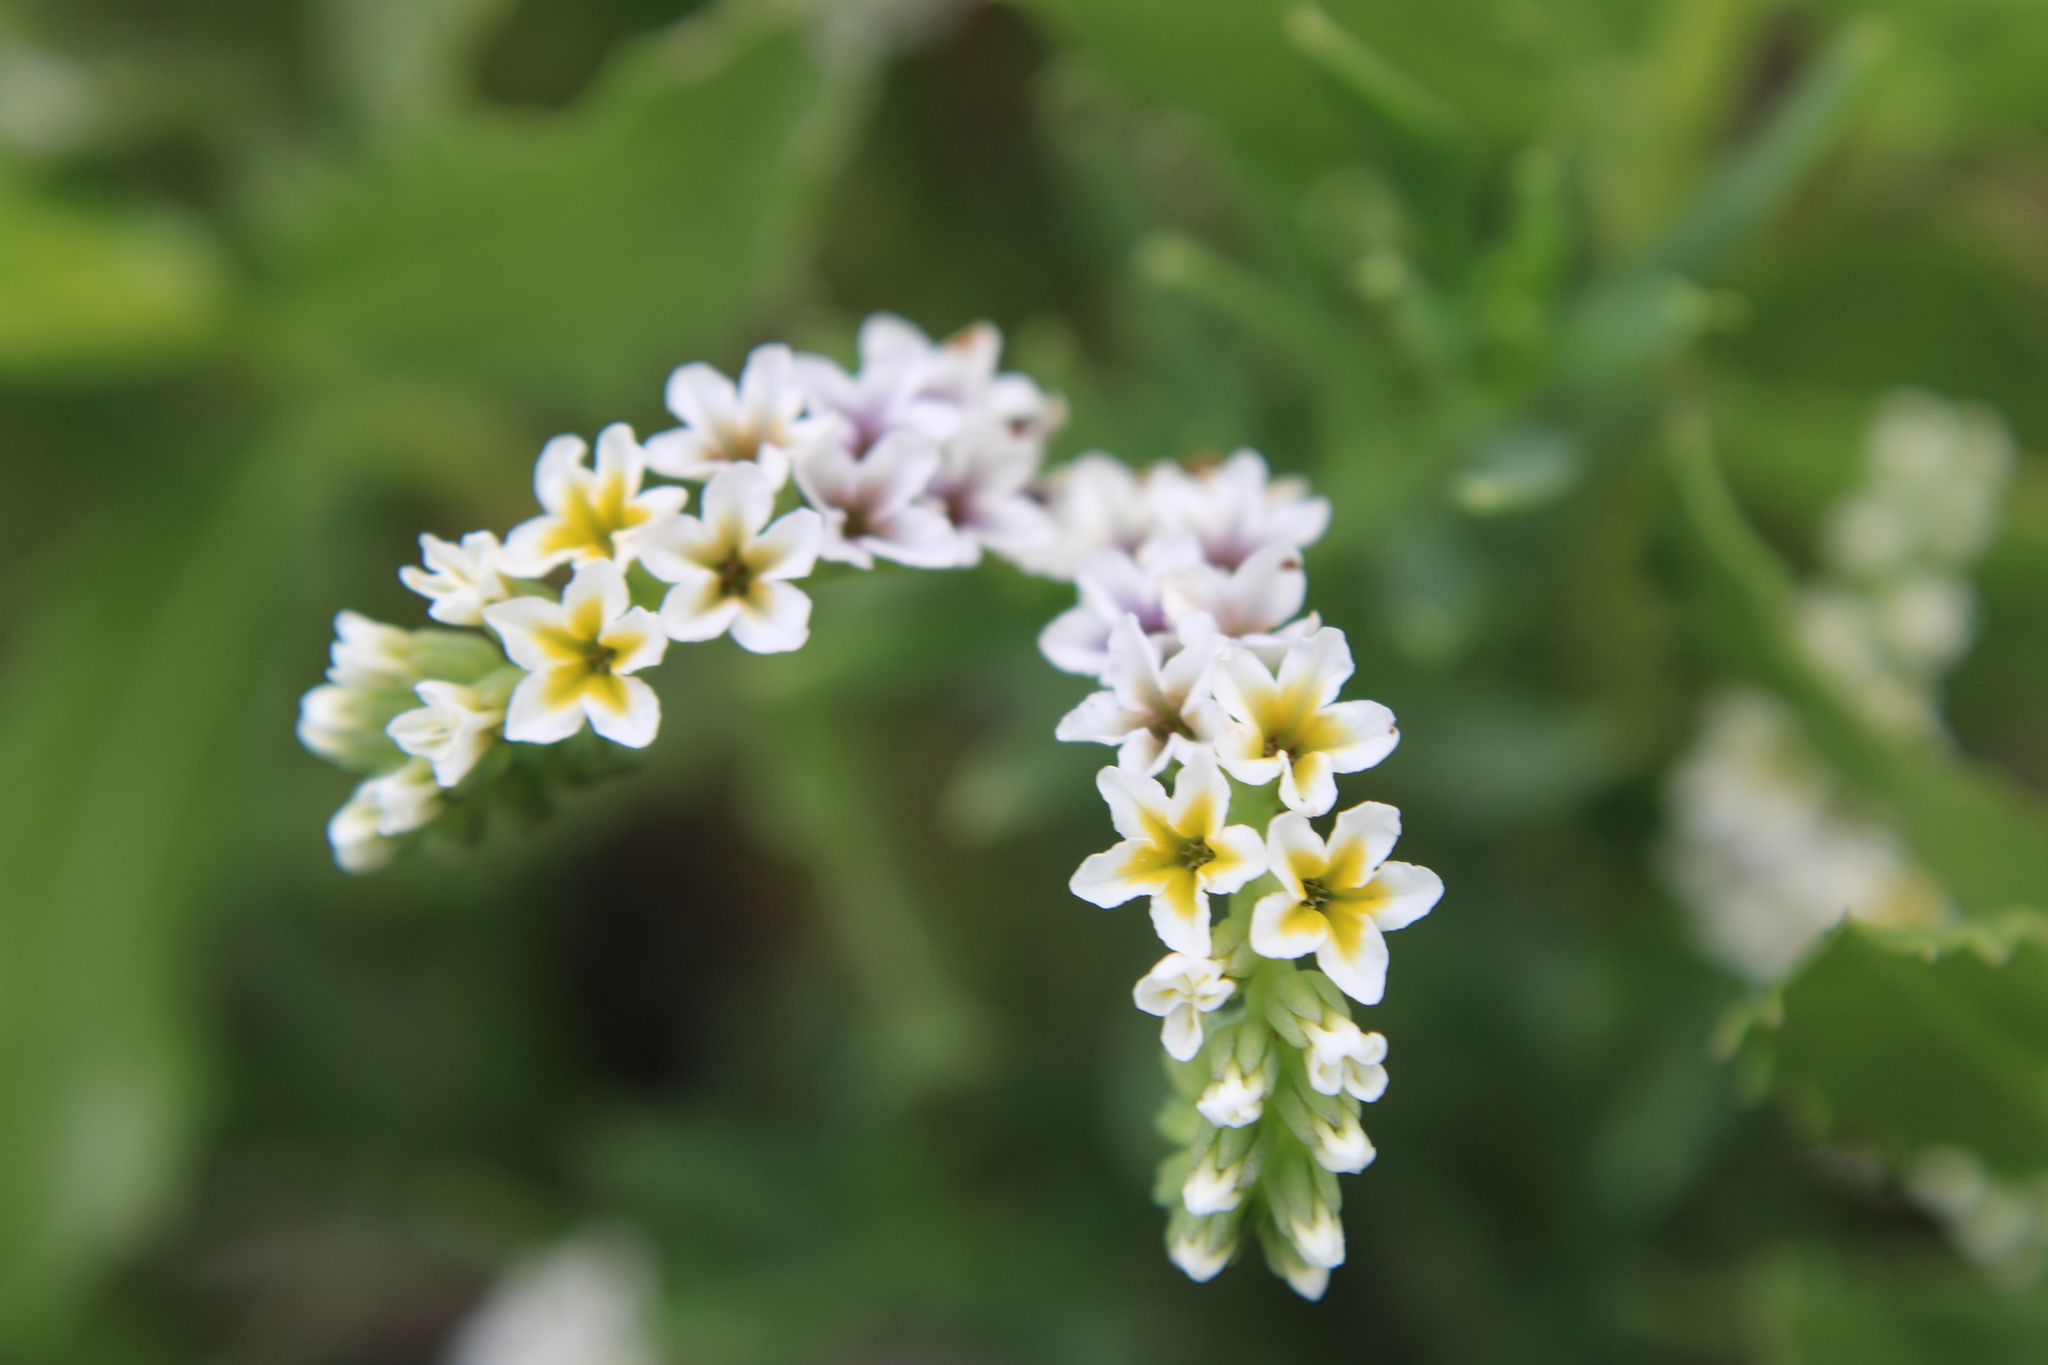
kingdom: Plantae
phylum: Tracheophyta
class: Magnoliopsida
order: Boraginales
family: Heliotropiaceae
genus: Heliotropium
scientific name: Heliotropium curassavicum
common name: Seaside heliotrope
